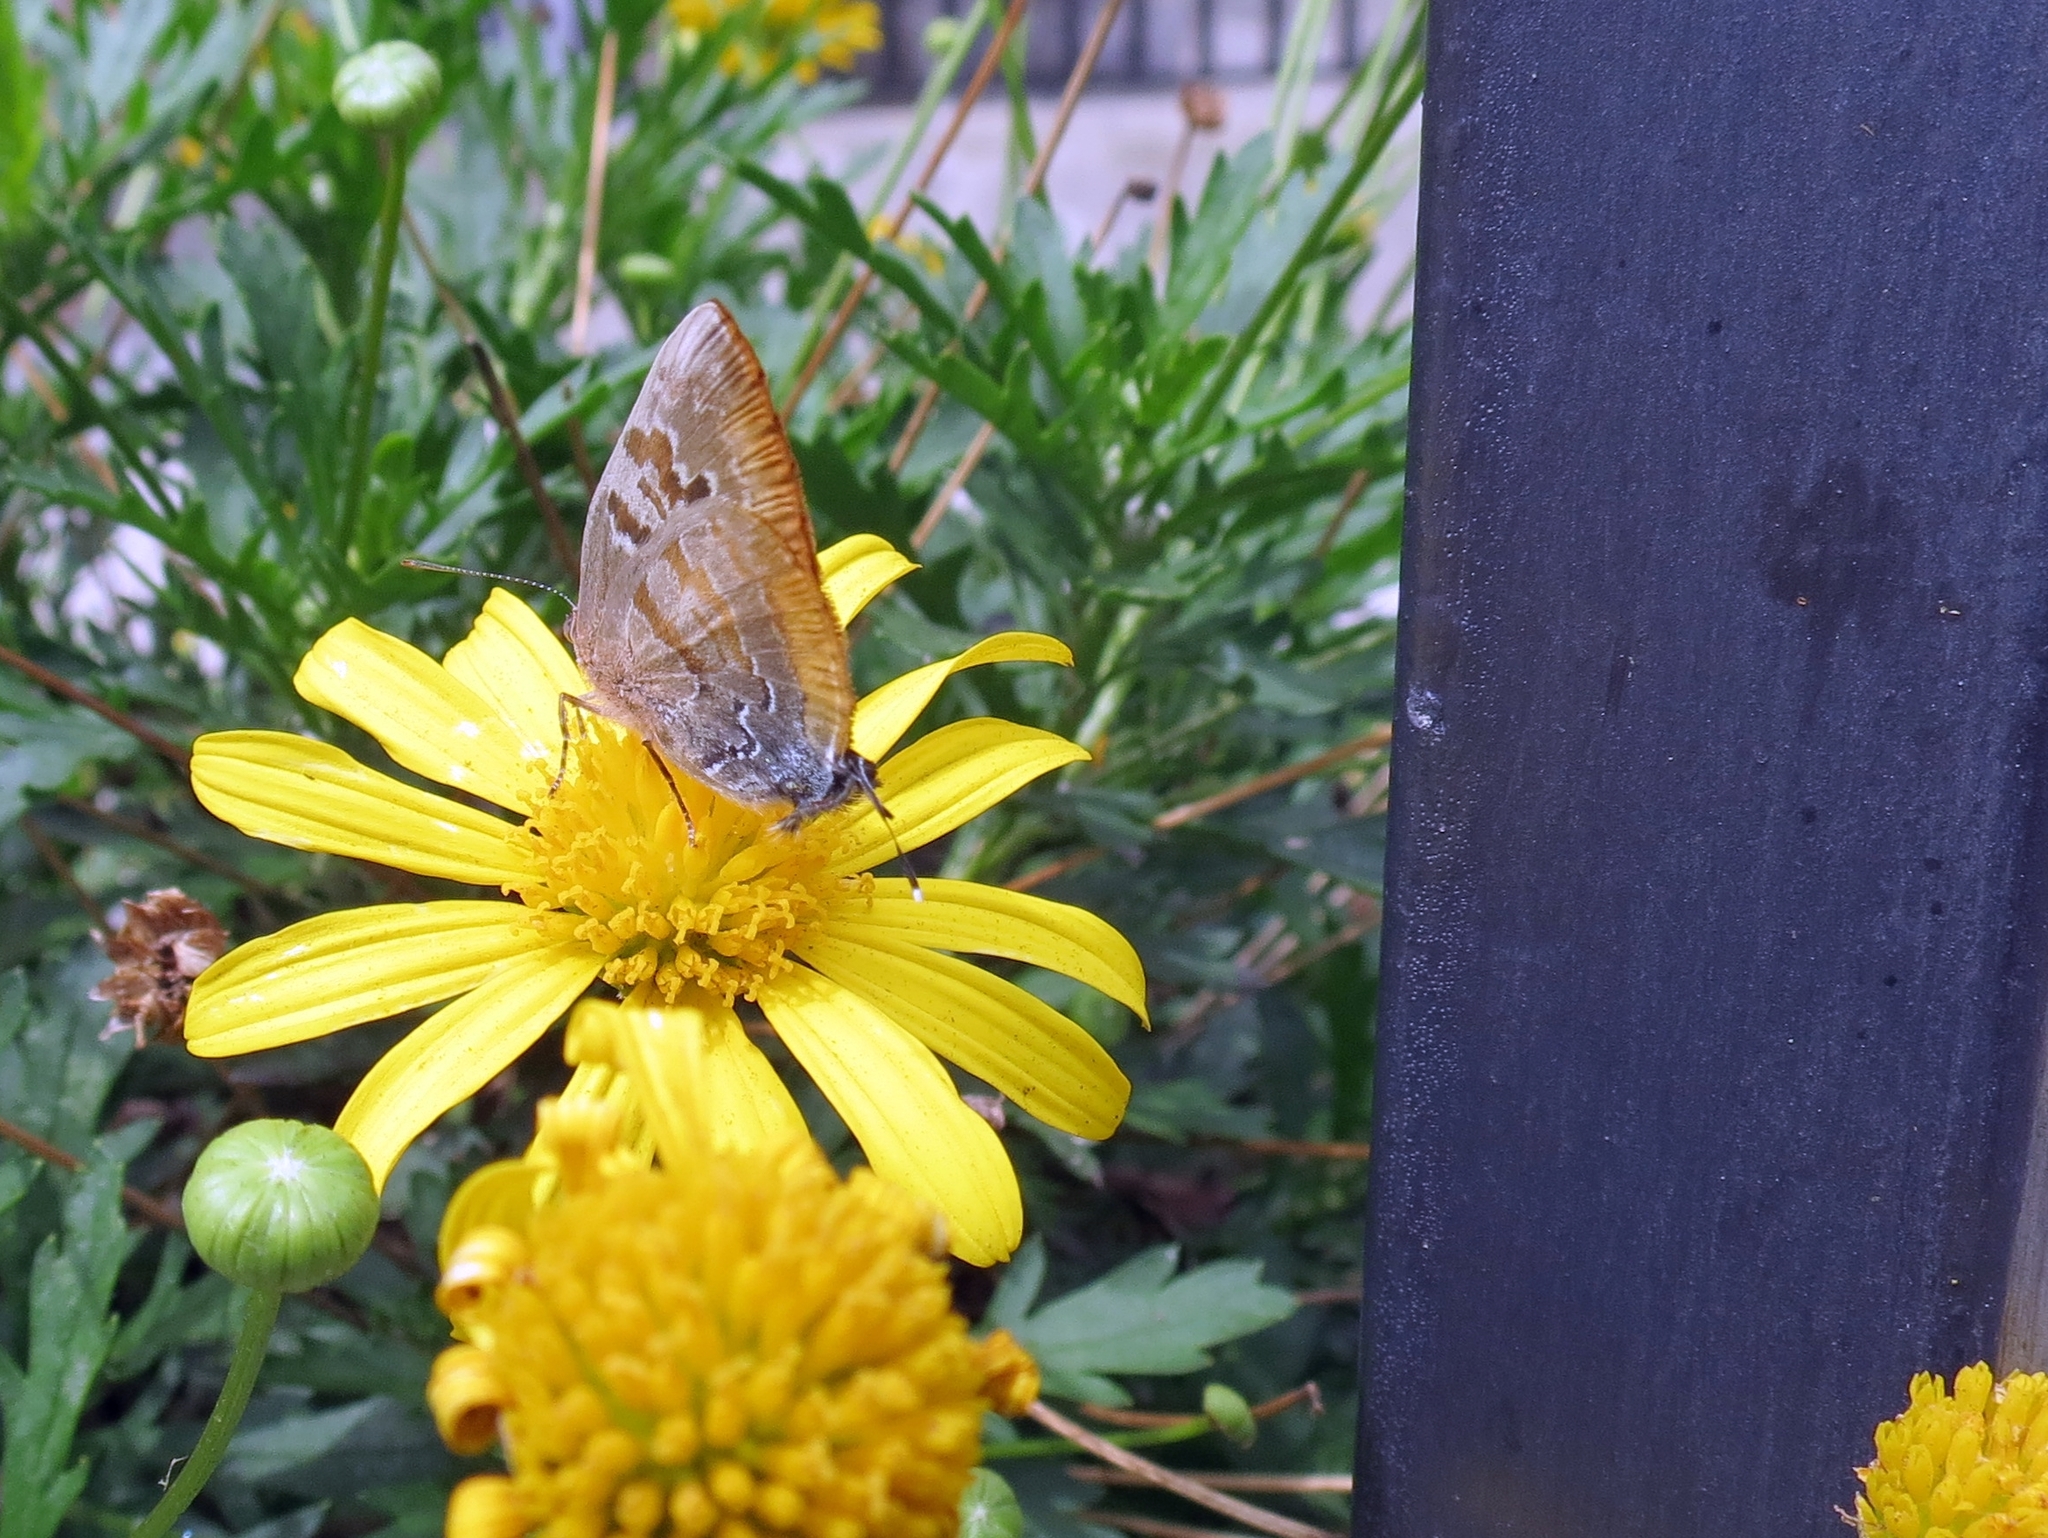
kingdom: Animalia
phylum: Arthropoda
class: Insecta
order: Lepidoptera
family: Lycaenidae
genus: Rekoa
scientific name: Rekoa palegon
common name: Gold-bordered hairstreak
